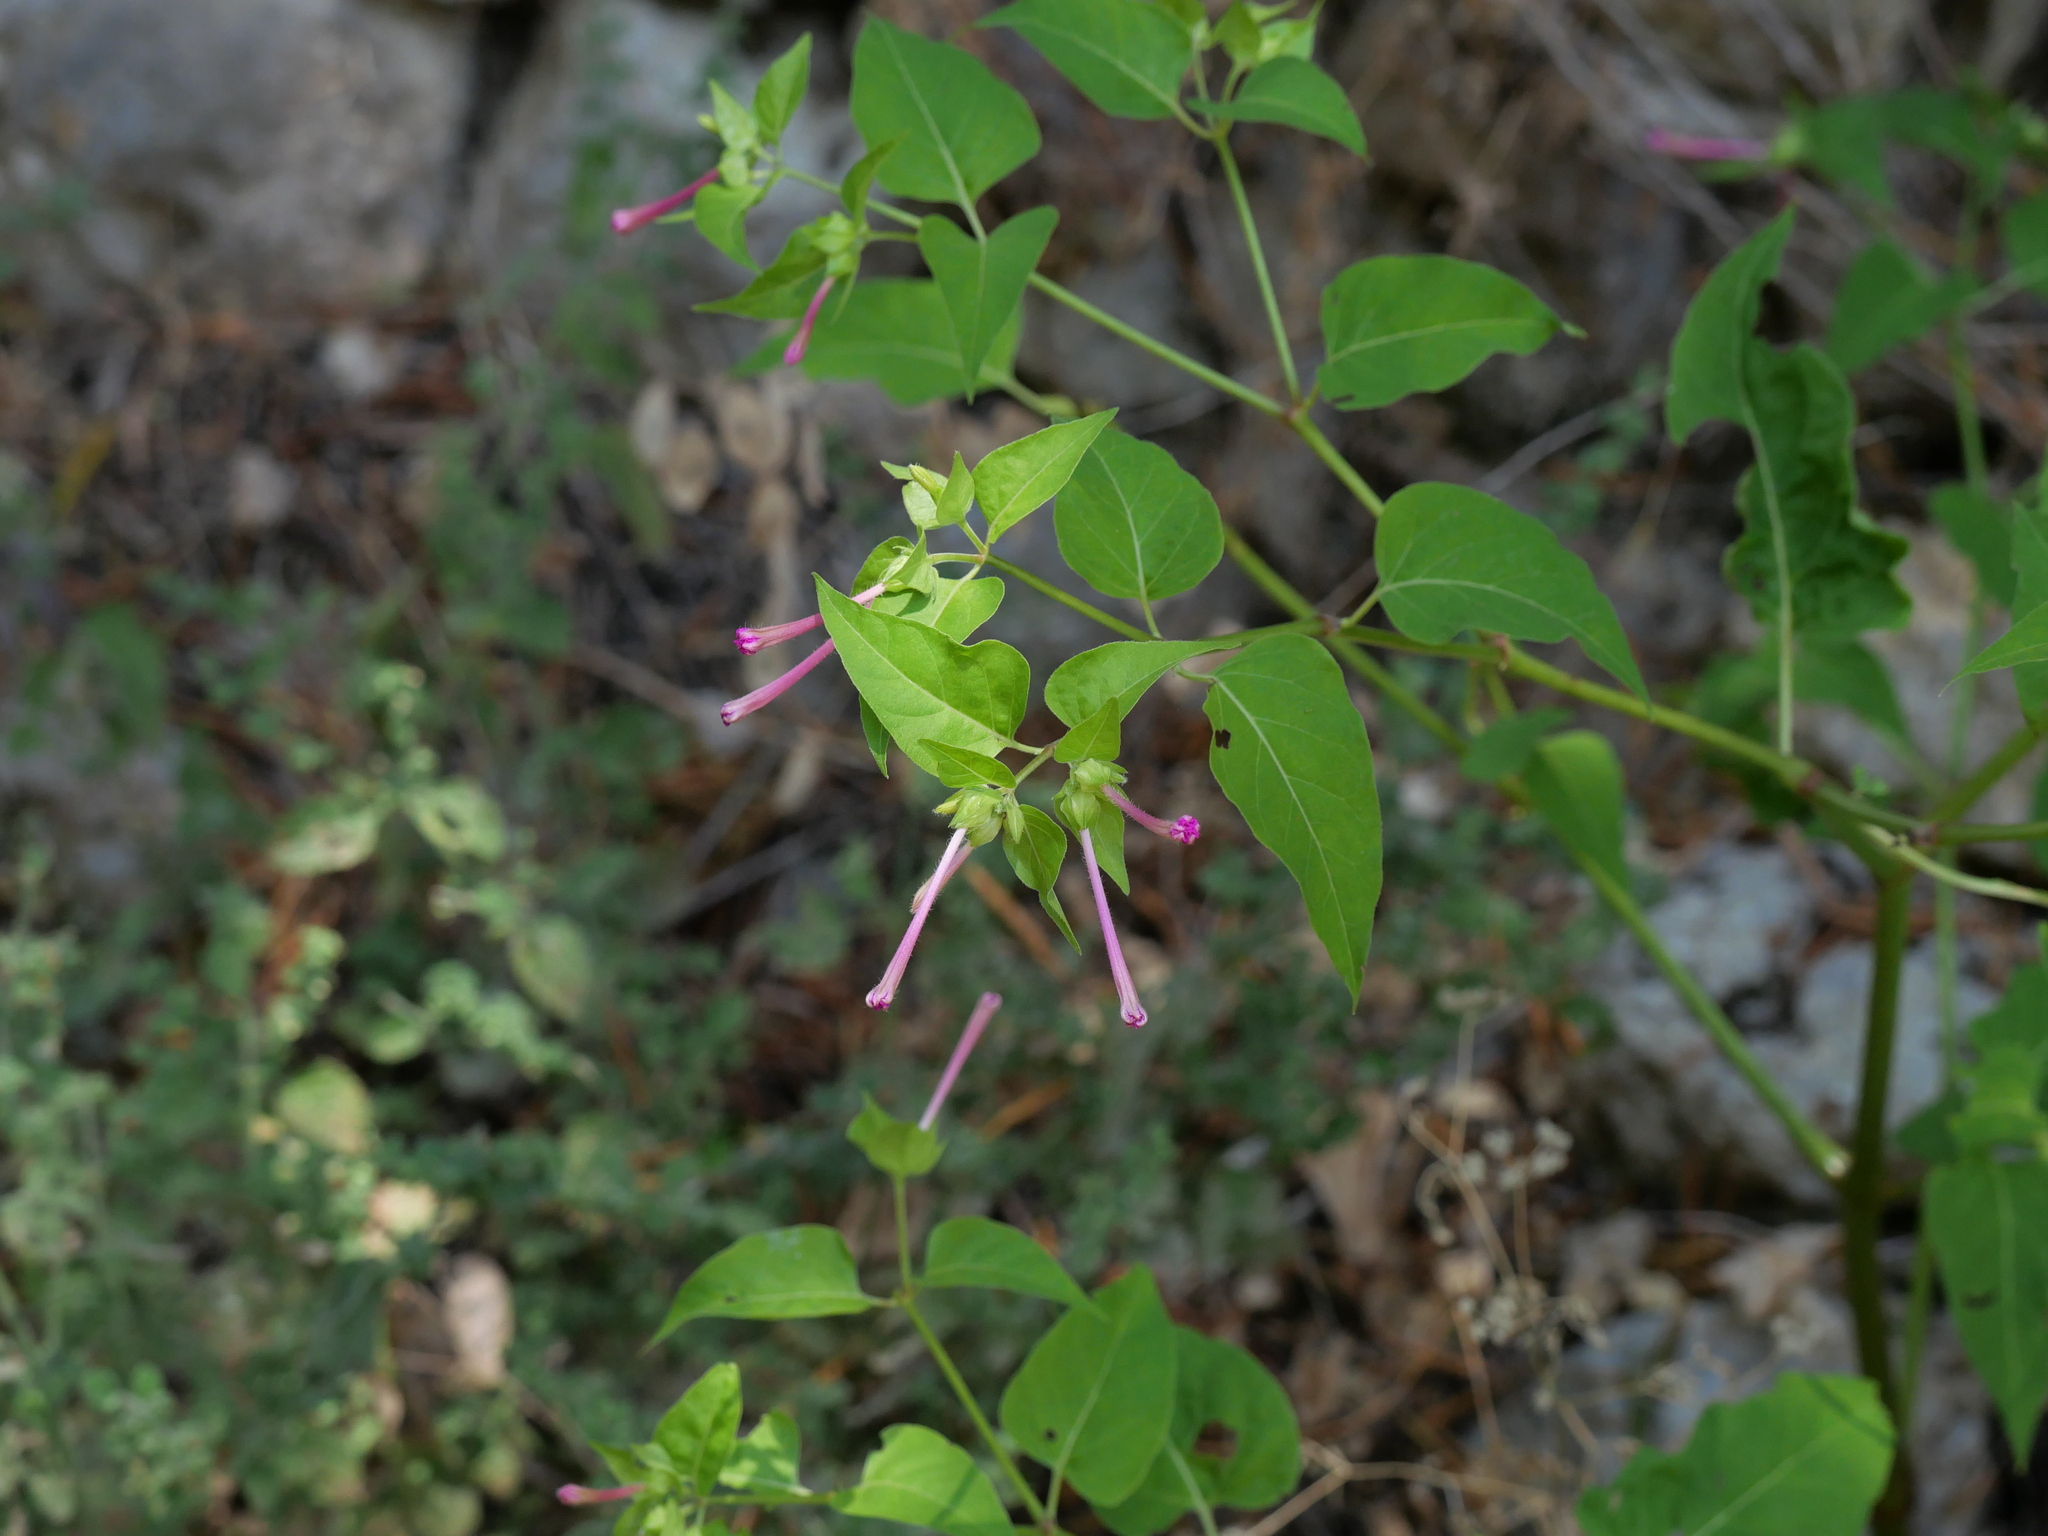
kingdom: Plantae
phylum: Tracheophyta
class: Magnoliopsida
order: Caryophyllales
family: Nyctaginaceae
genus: Mirabilis
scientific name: Mirabilis jalapa
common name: Marvel-of-peru
